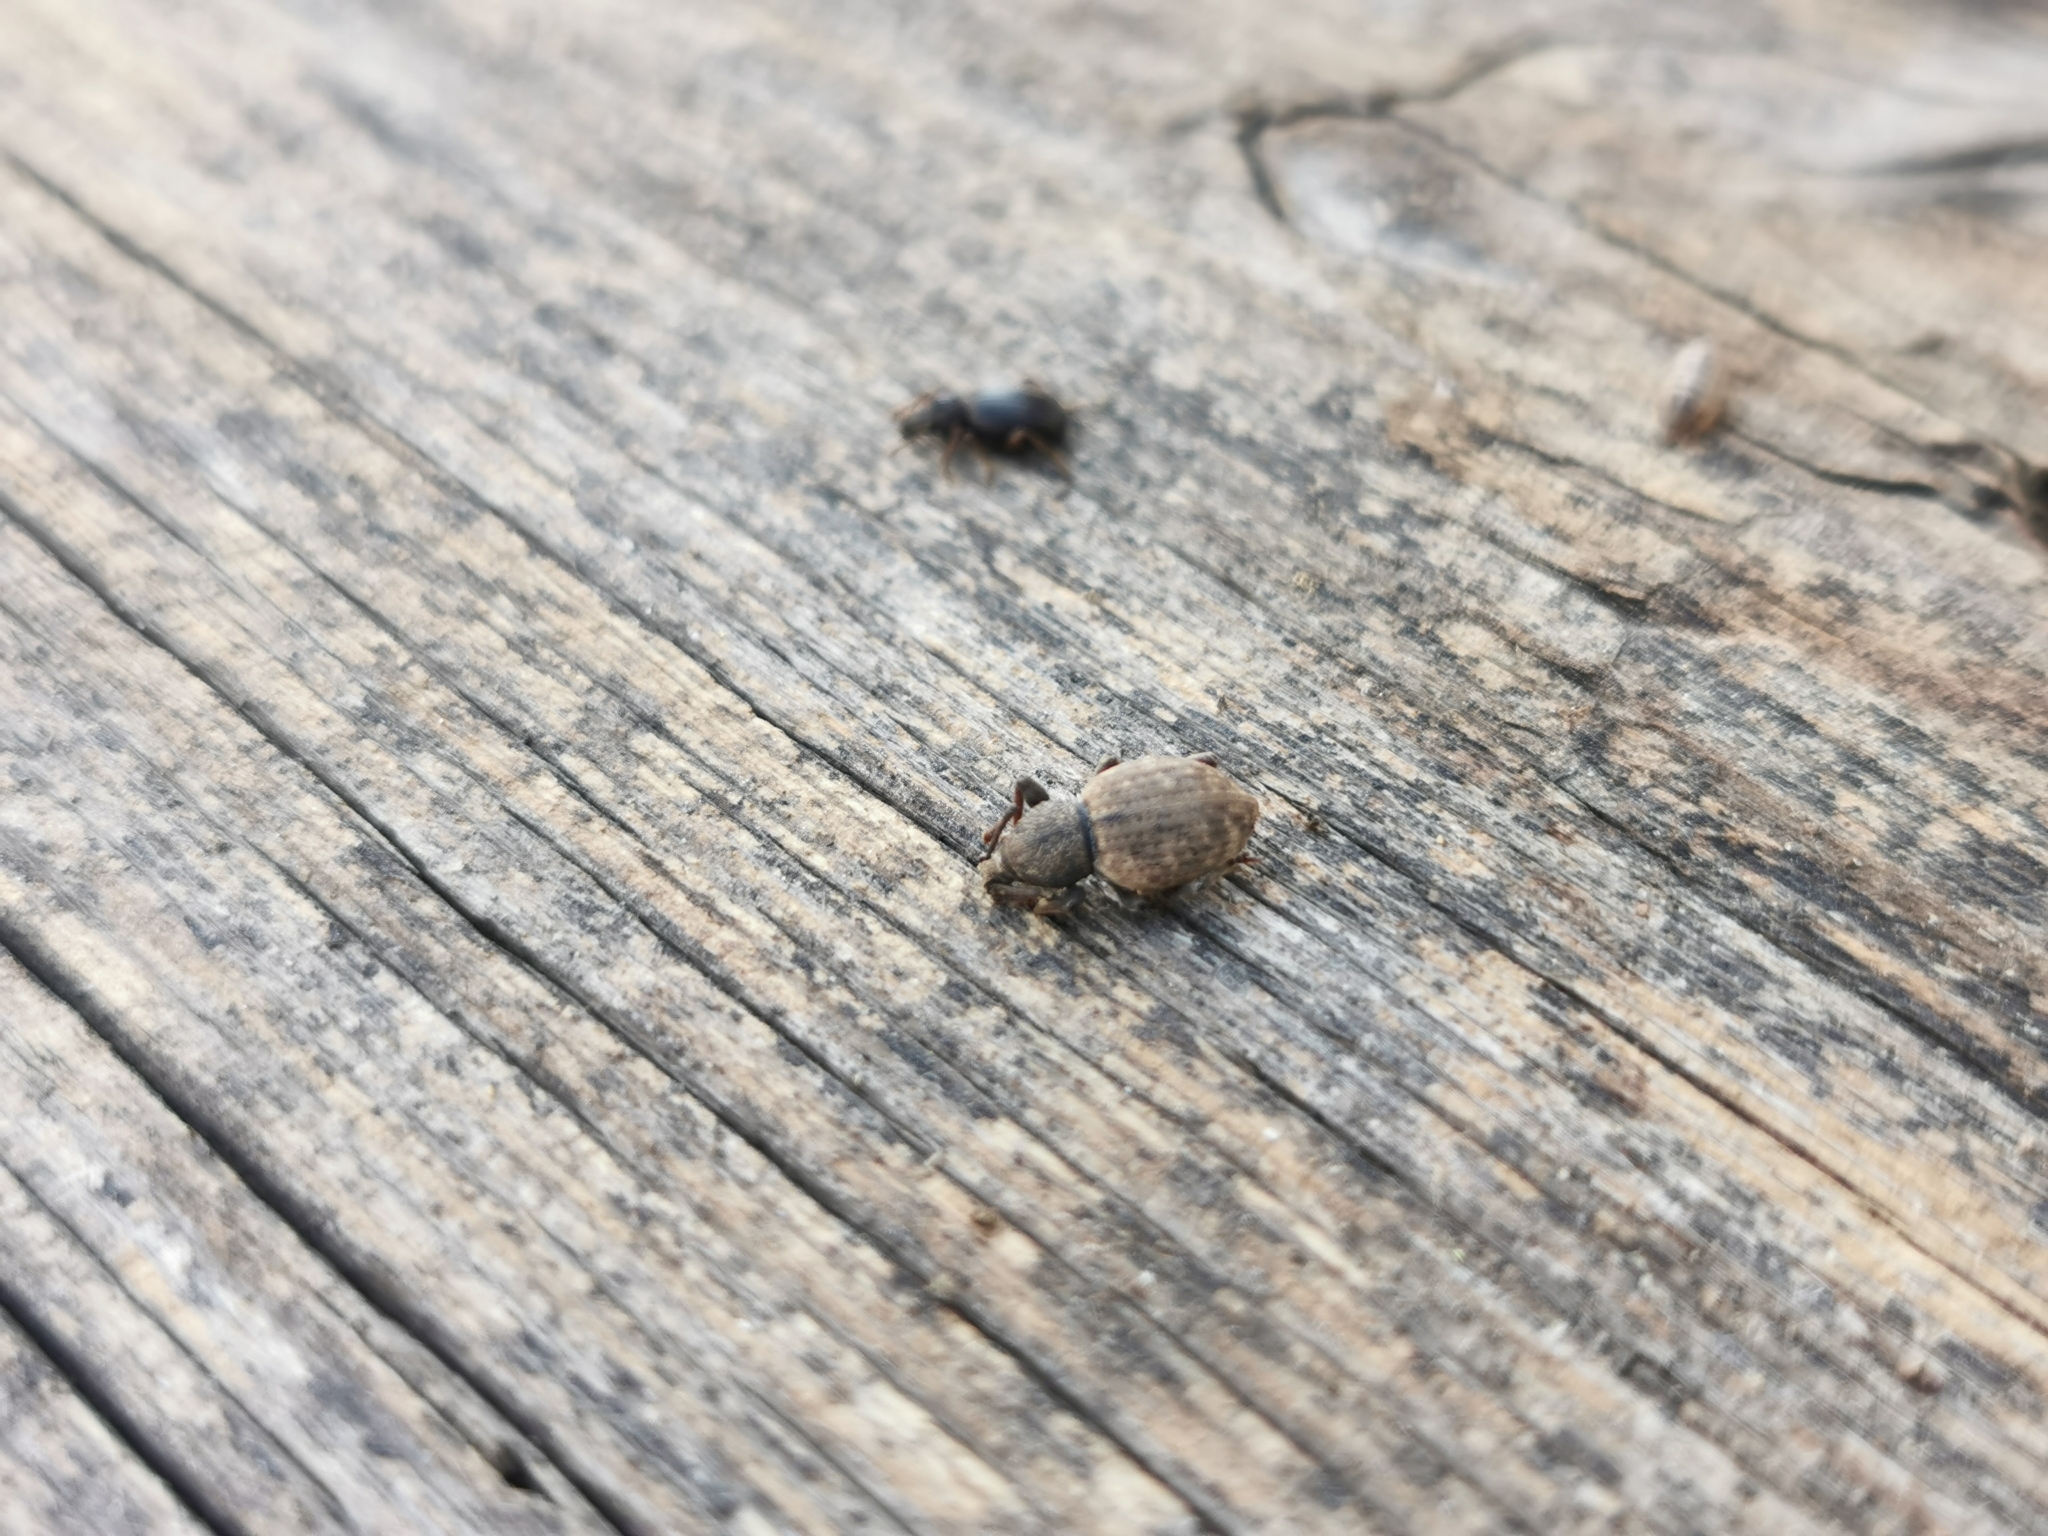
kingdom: Animalia
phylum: Arthropoda
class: Insecta
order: Coleoptera
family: Curculionidae
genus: Otiorhynchus
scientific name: Otiorhynchus raucus
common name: Weevil
